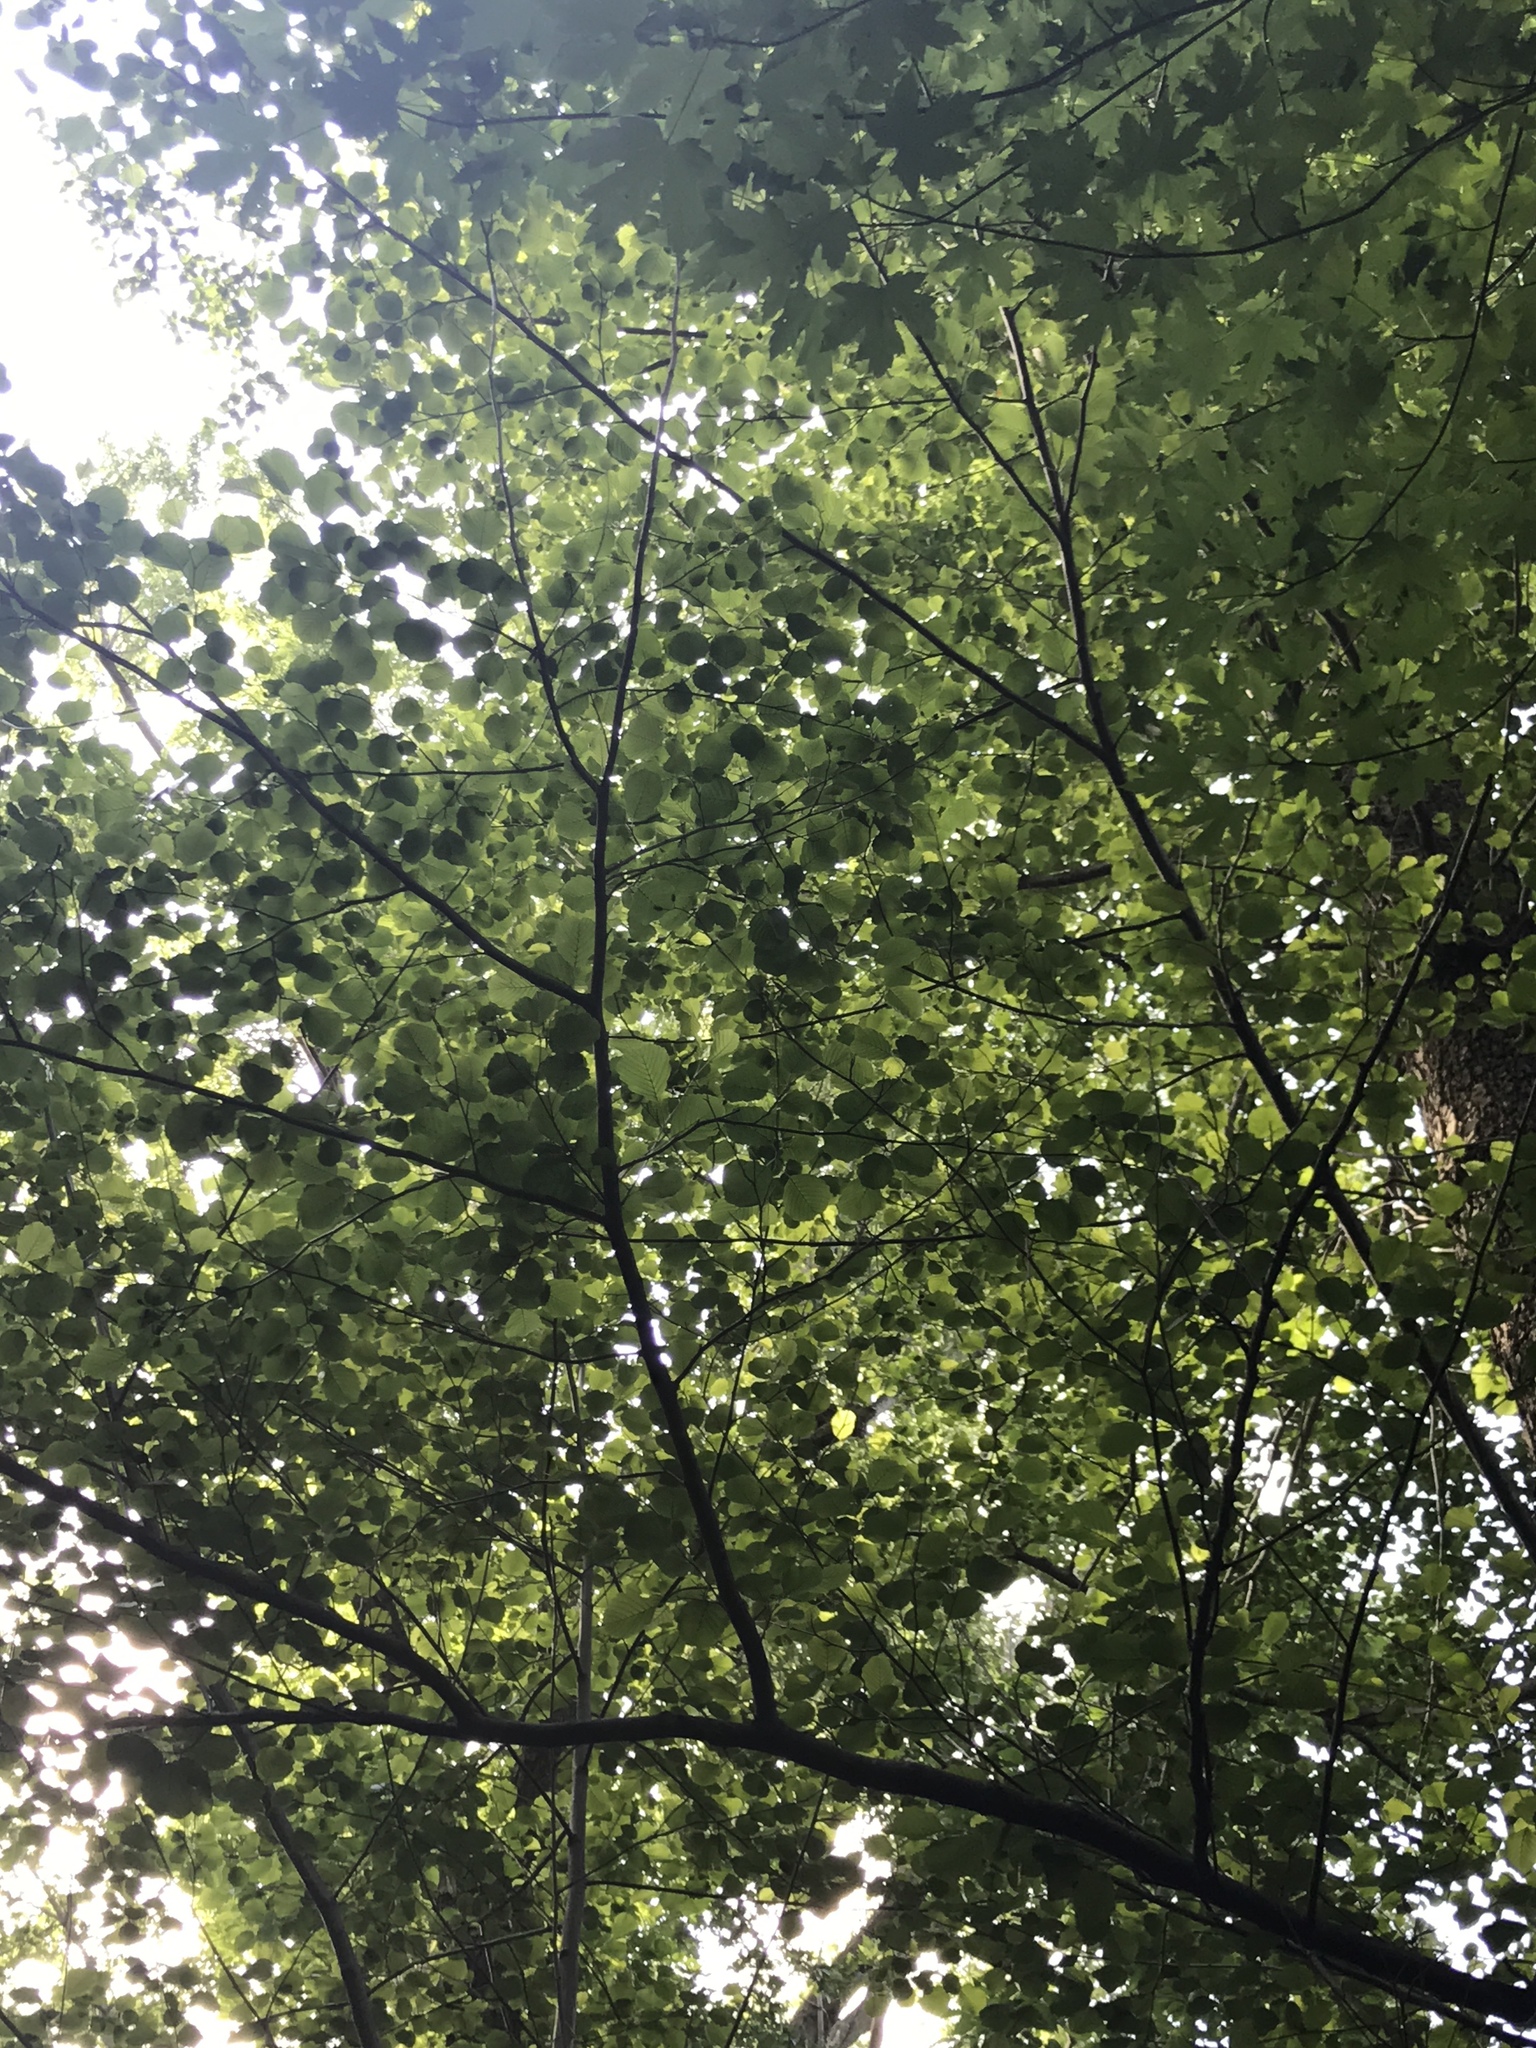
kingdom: Plantae
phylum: Tracheophyta
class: Magnoliopsida
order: Fagales
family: Betulaceae
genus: Alnus
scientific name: Alnus glutinosa
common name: Black alder
